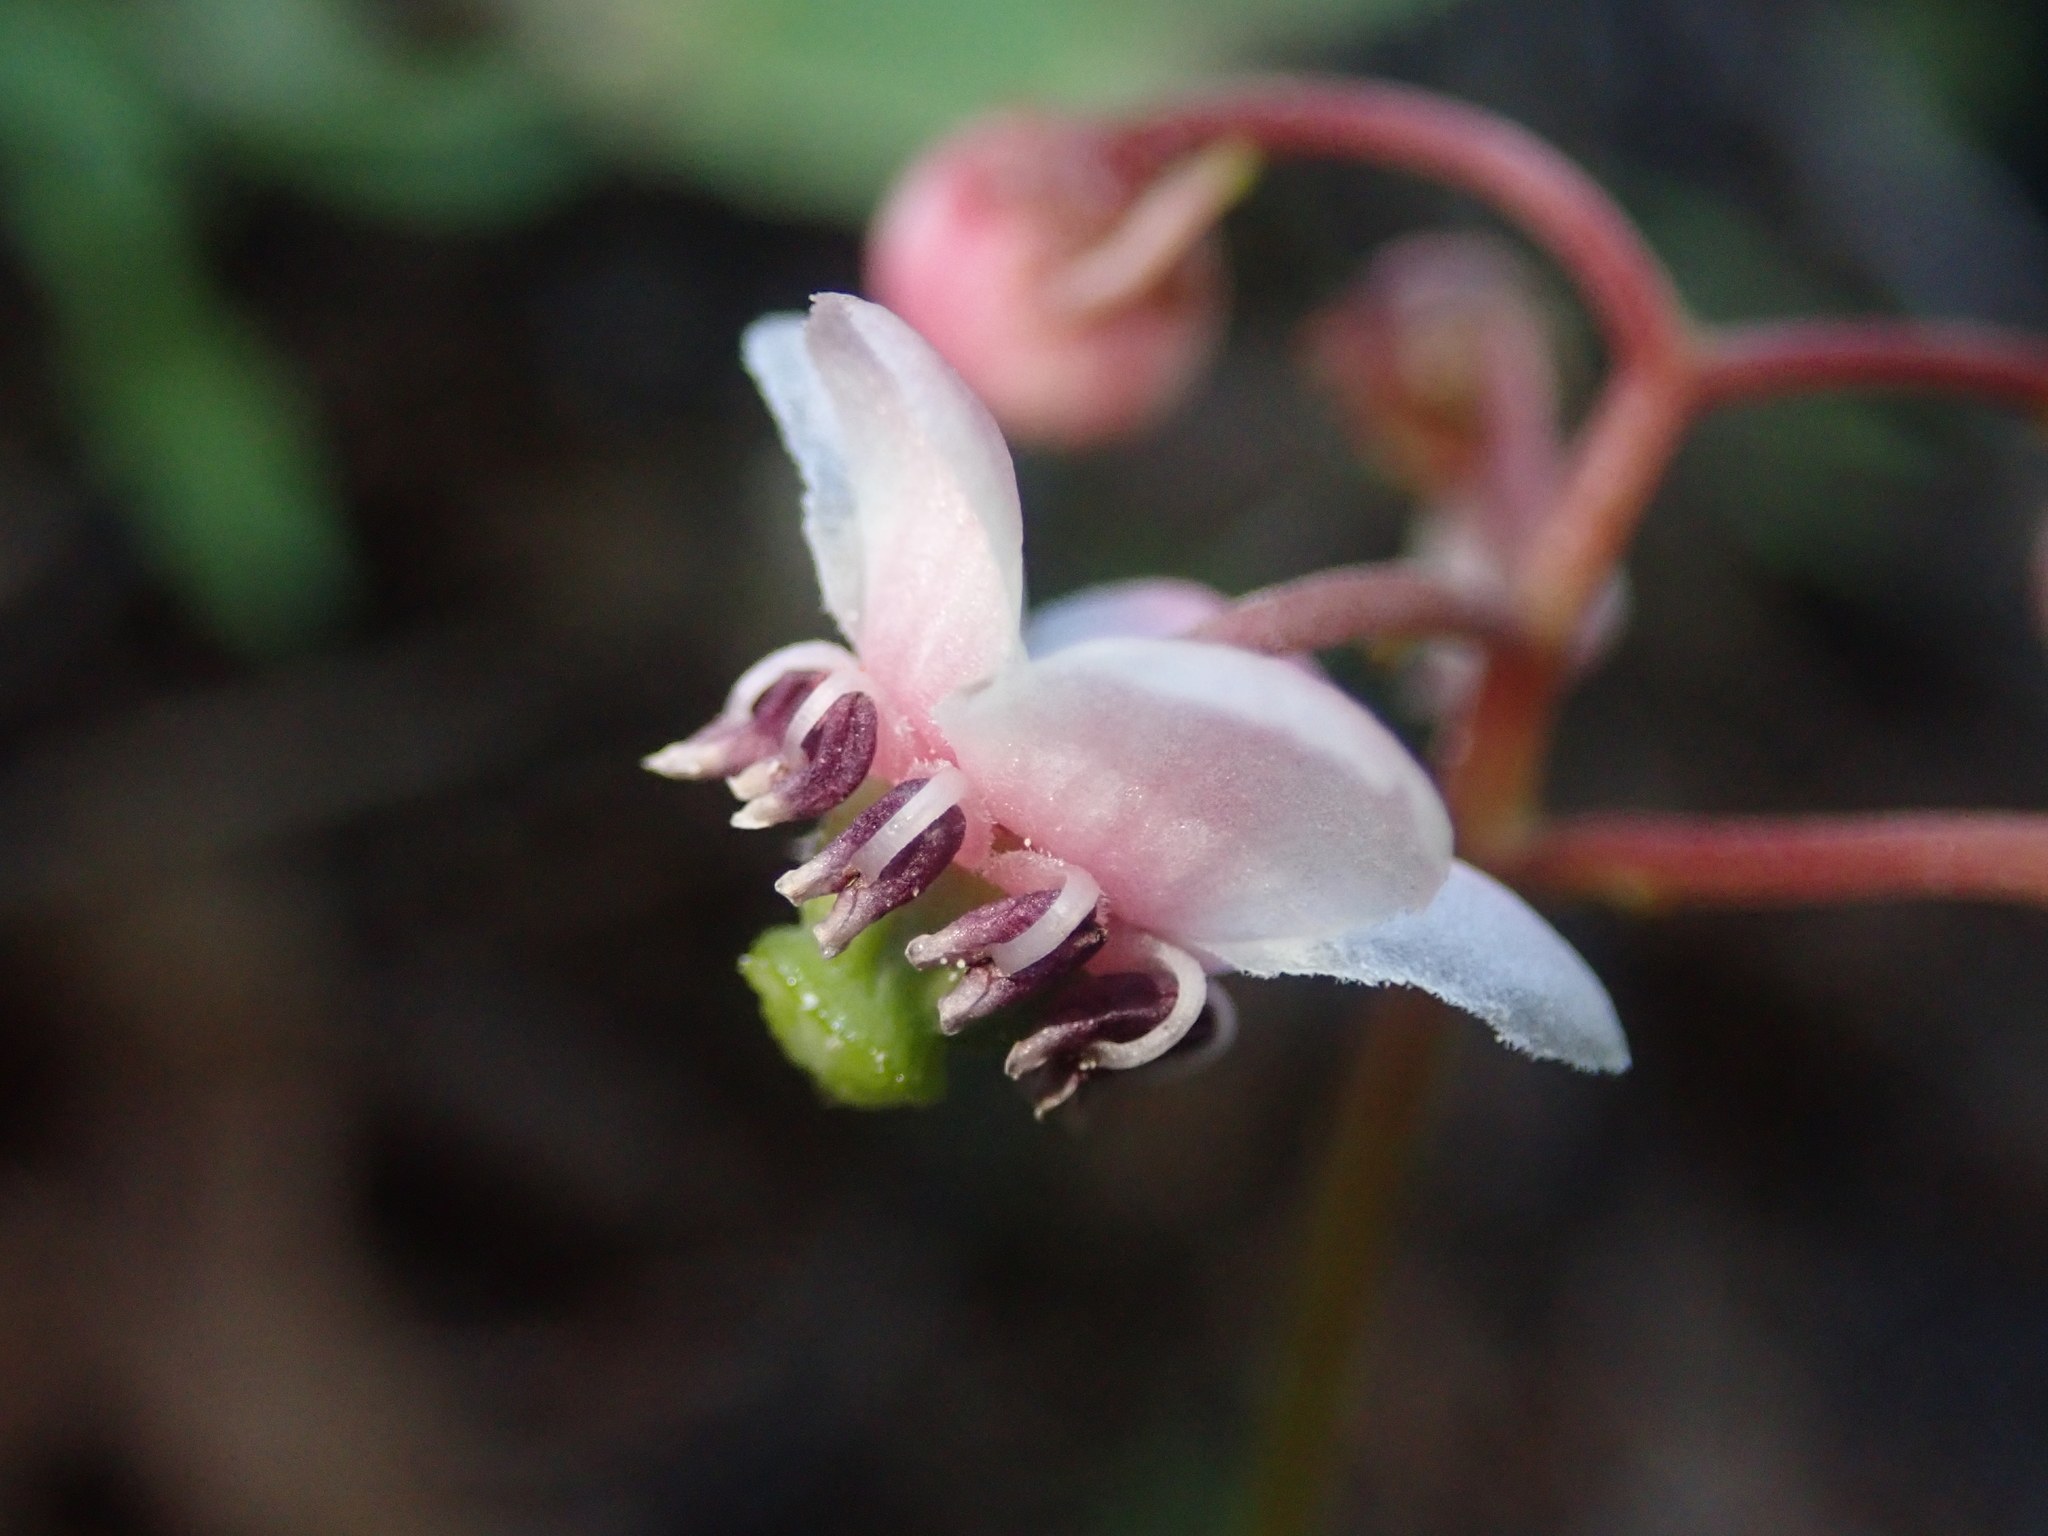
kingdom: Plantae
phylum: Tracheophyta
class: Magnoliopsida
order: Ericales
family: Ericaceae
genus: Chimaphila
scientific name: Chimaphila umbellata
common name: Pipsissewa
